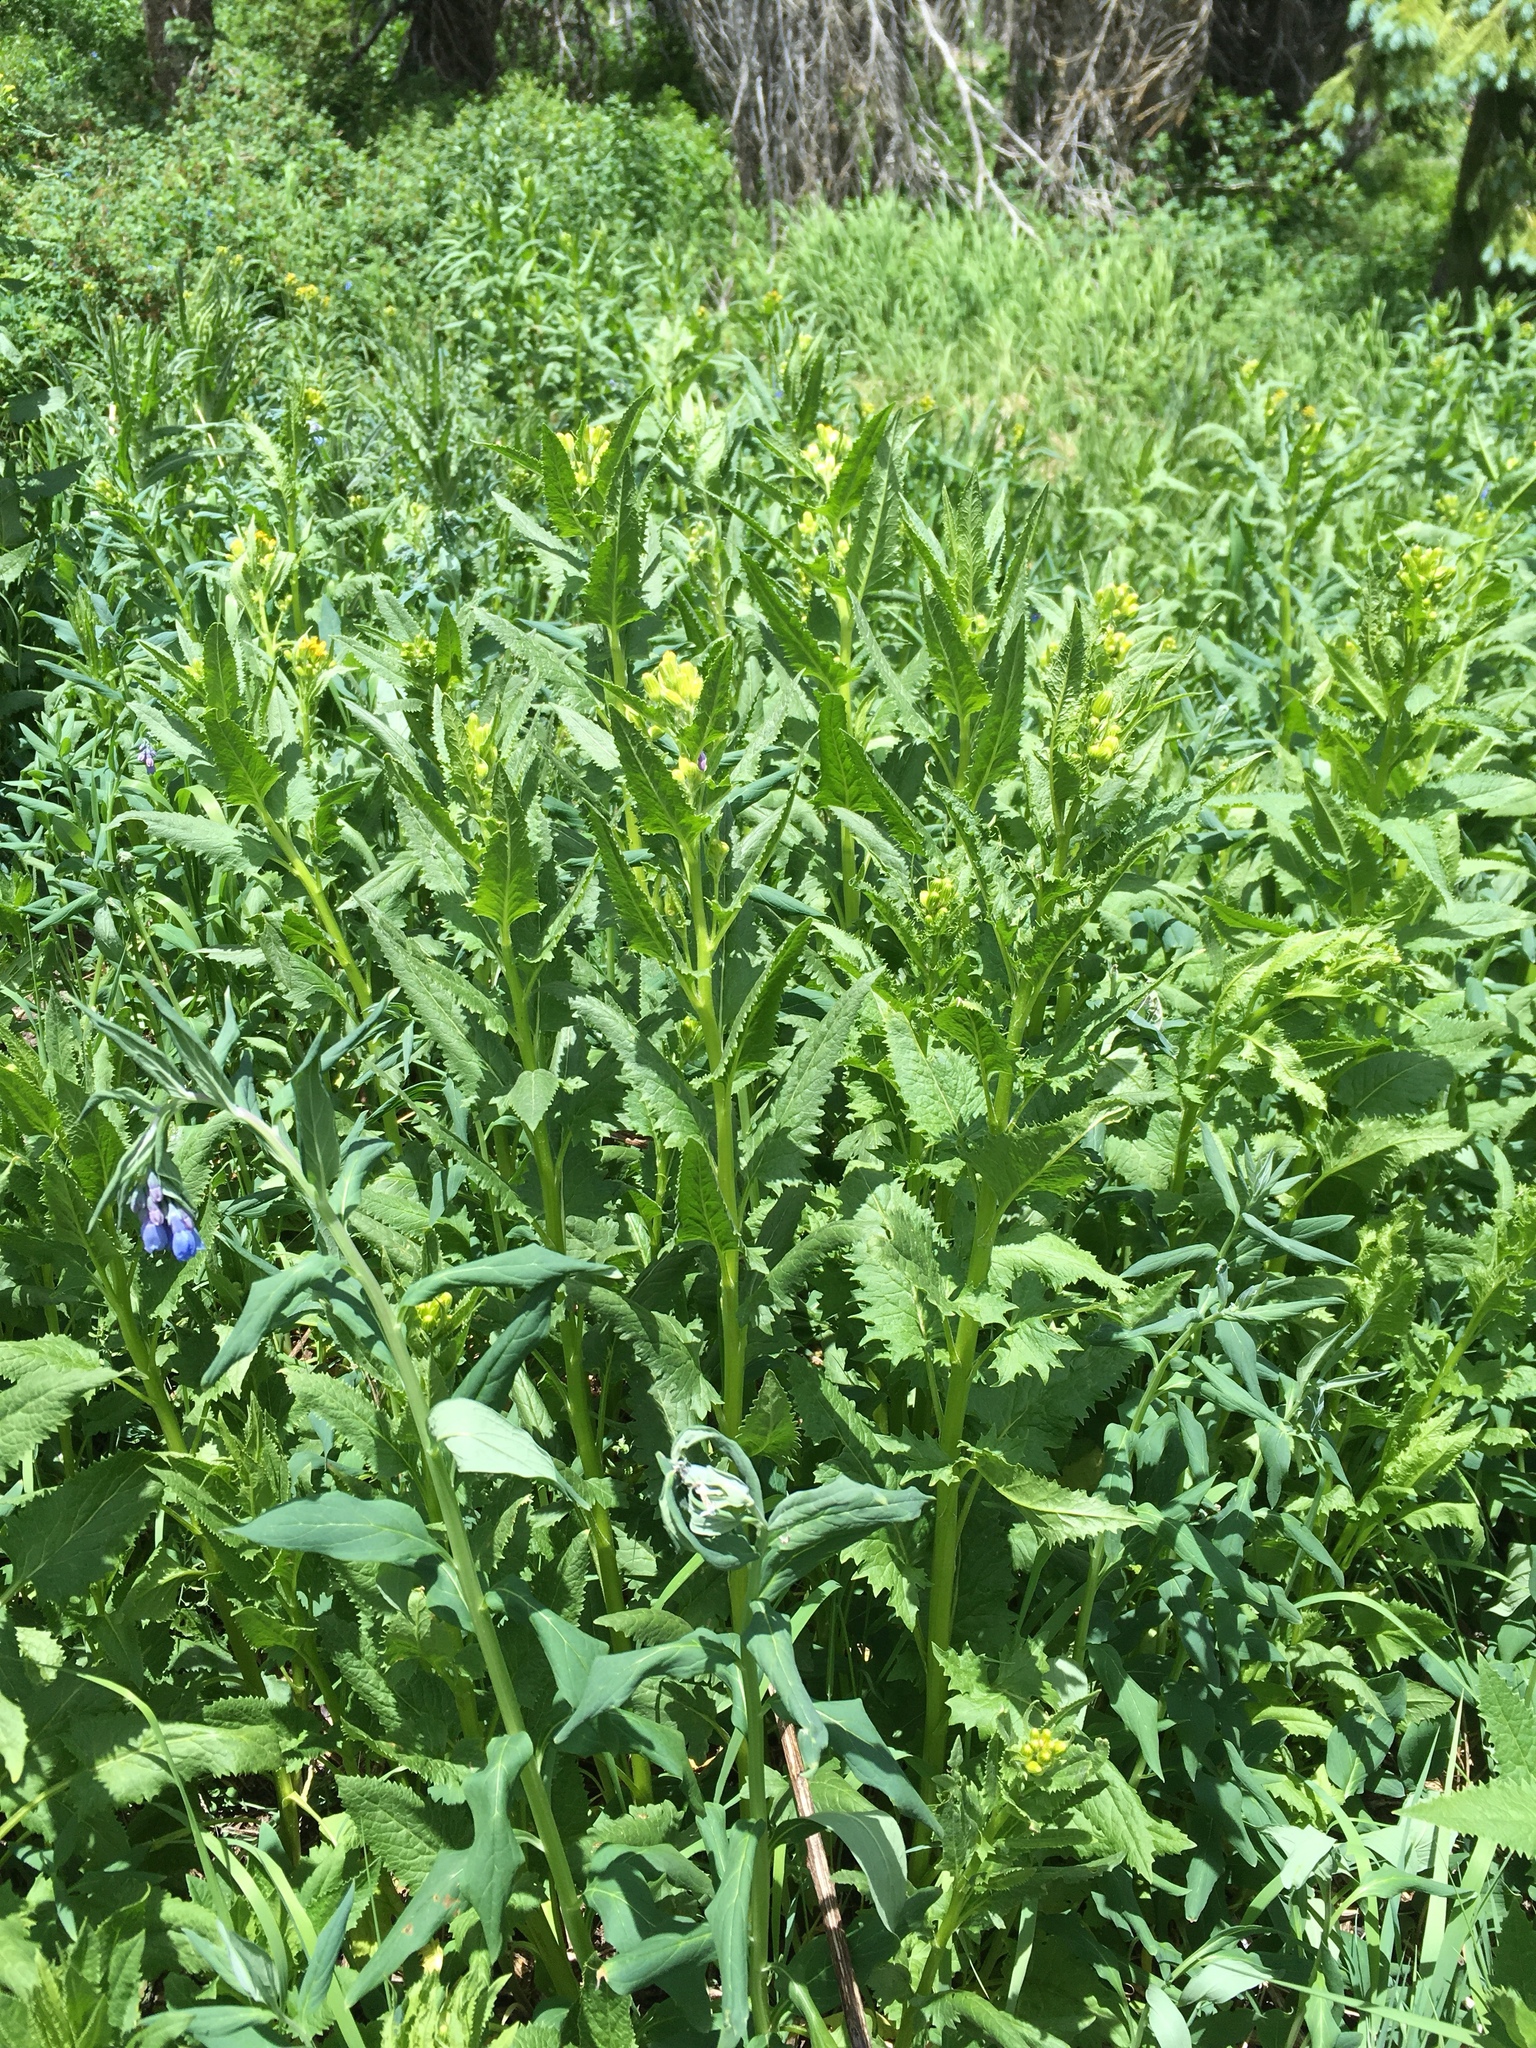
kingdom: Plantae
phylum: Tracheophyta
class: Magnoliopsida
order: Asterales
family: Asteraceae
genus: Senecio
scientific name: Senecio triangularis
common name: Arrowleaf butterweed
